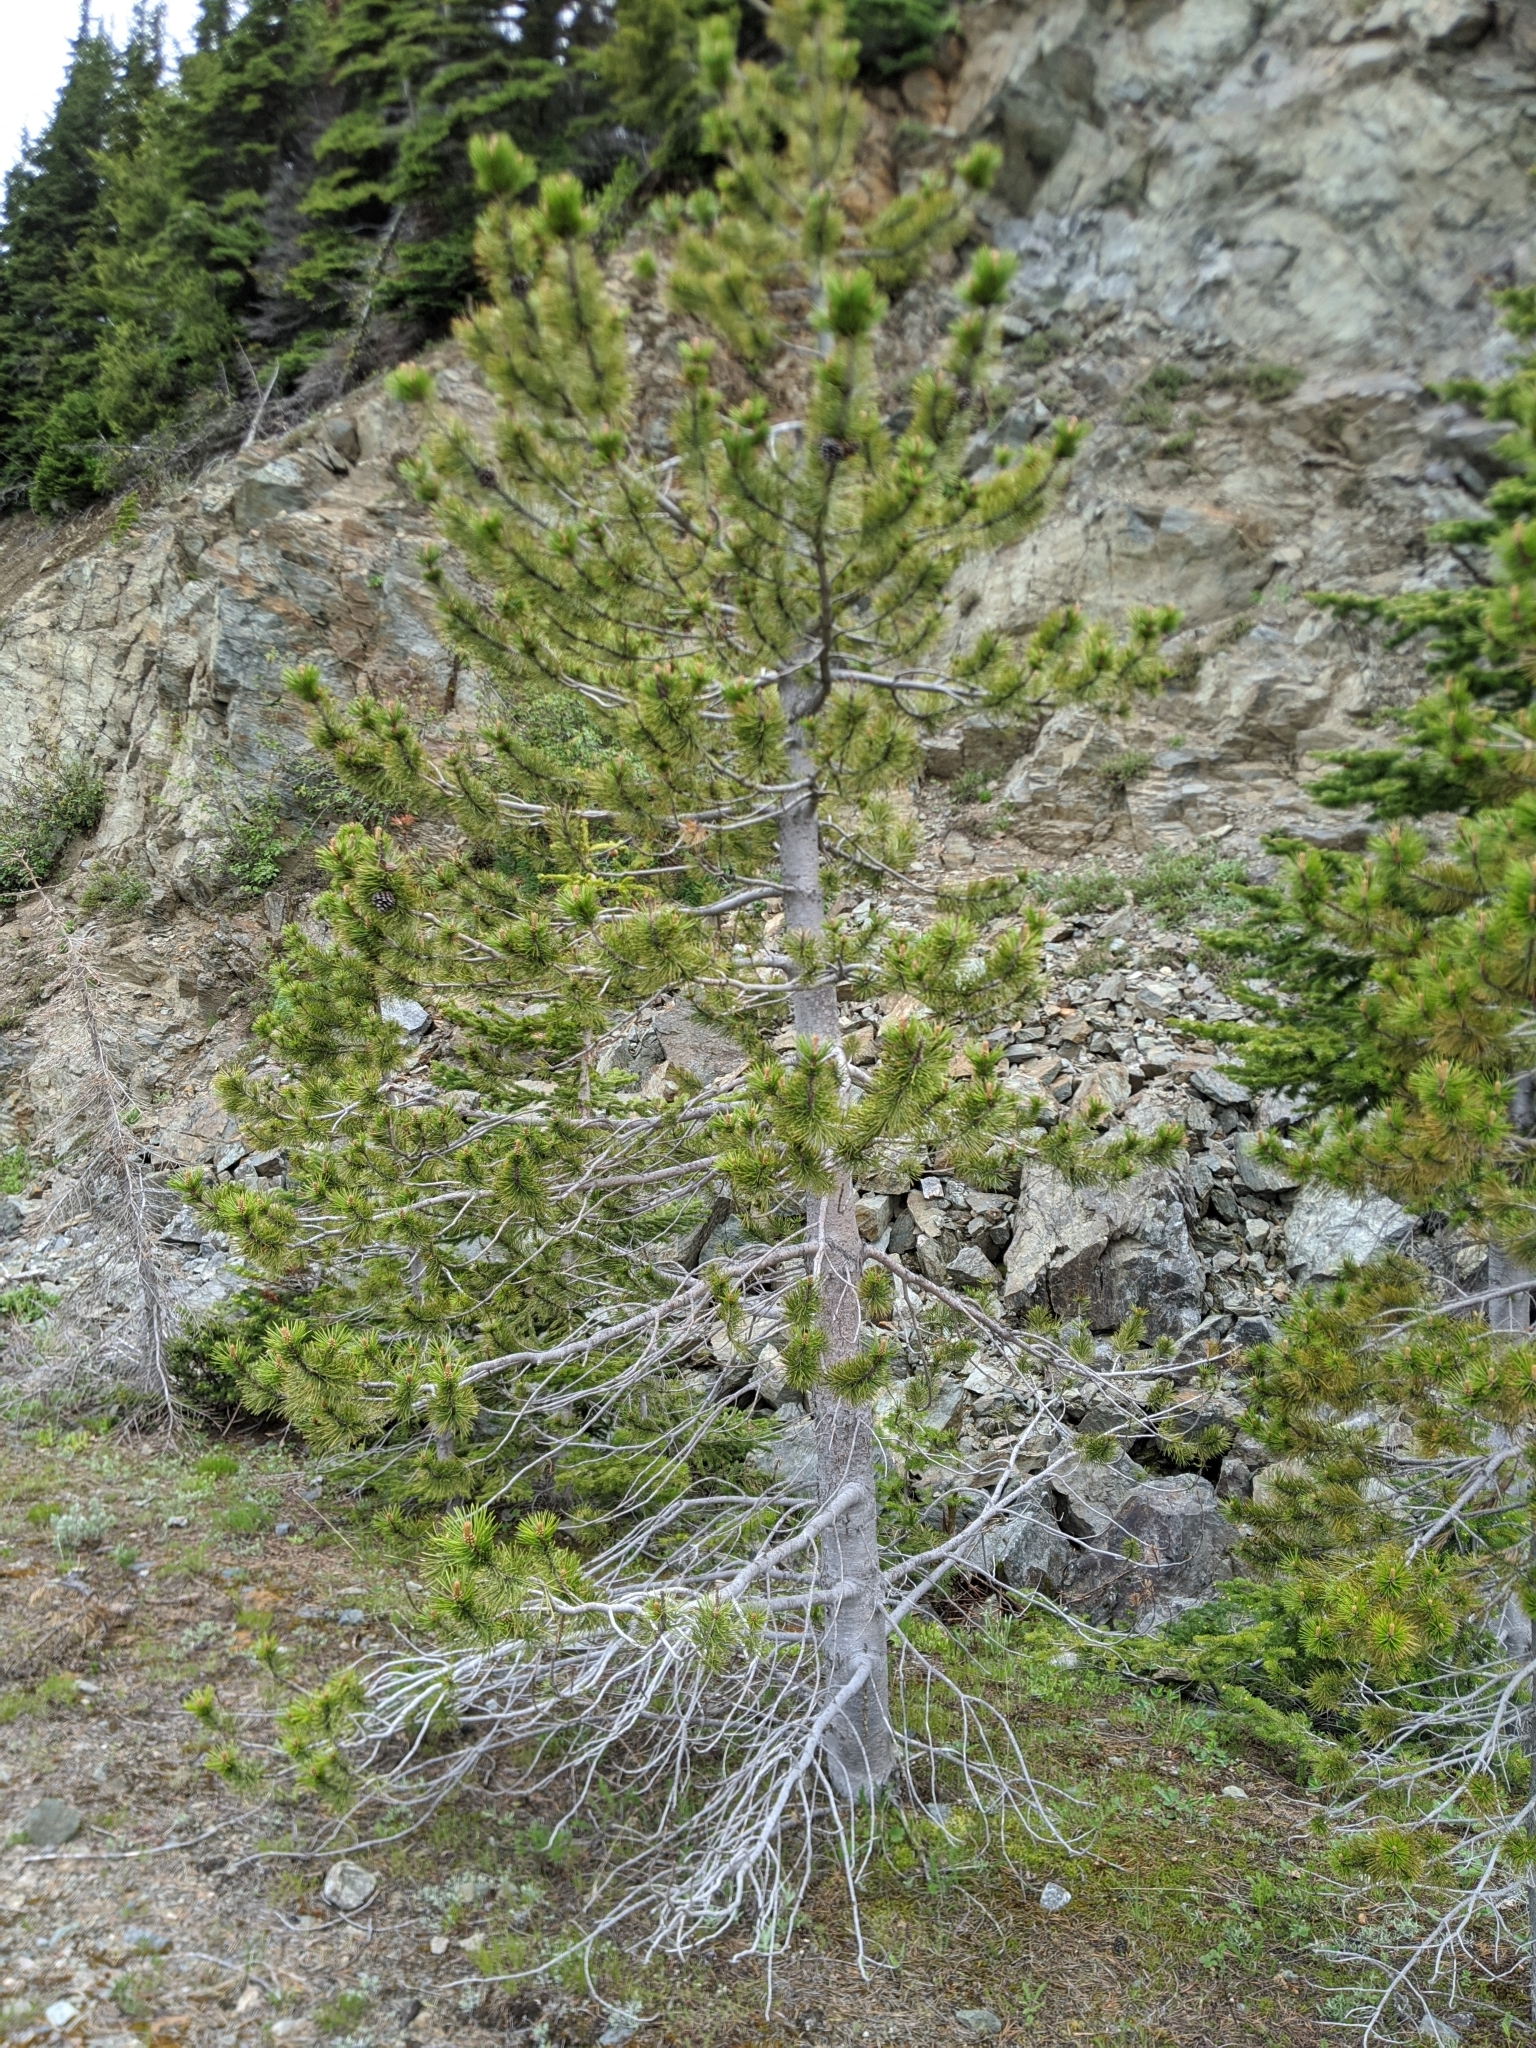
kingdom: Plantae
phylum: Tracheophyta
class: Pinopsida
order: Pinales
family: Pinaceae
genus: Pinus
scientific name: Pinus contorta
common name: Lodgepole pine
